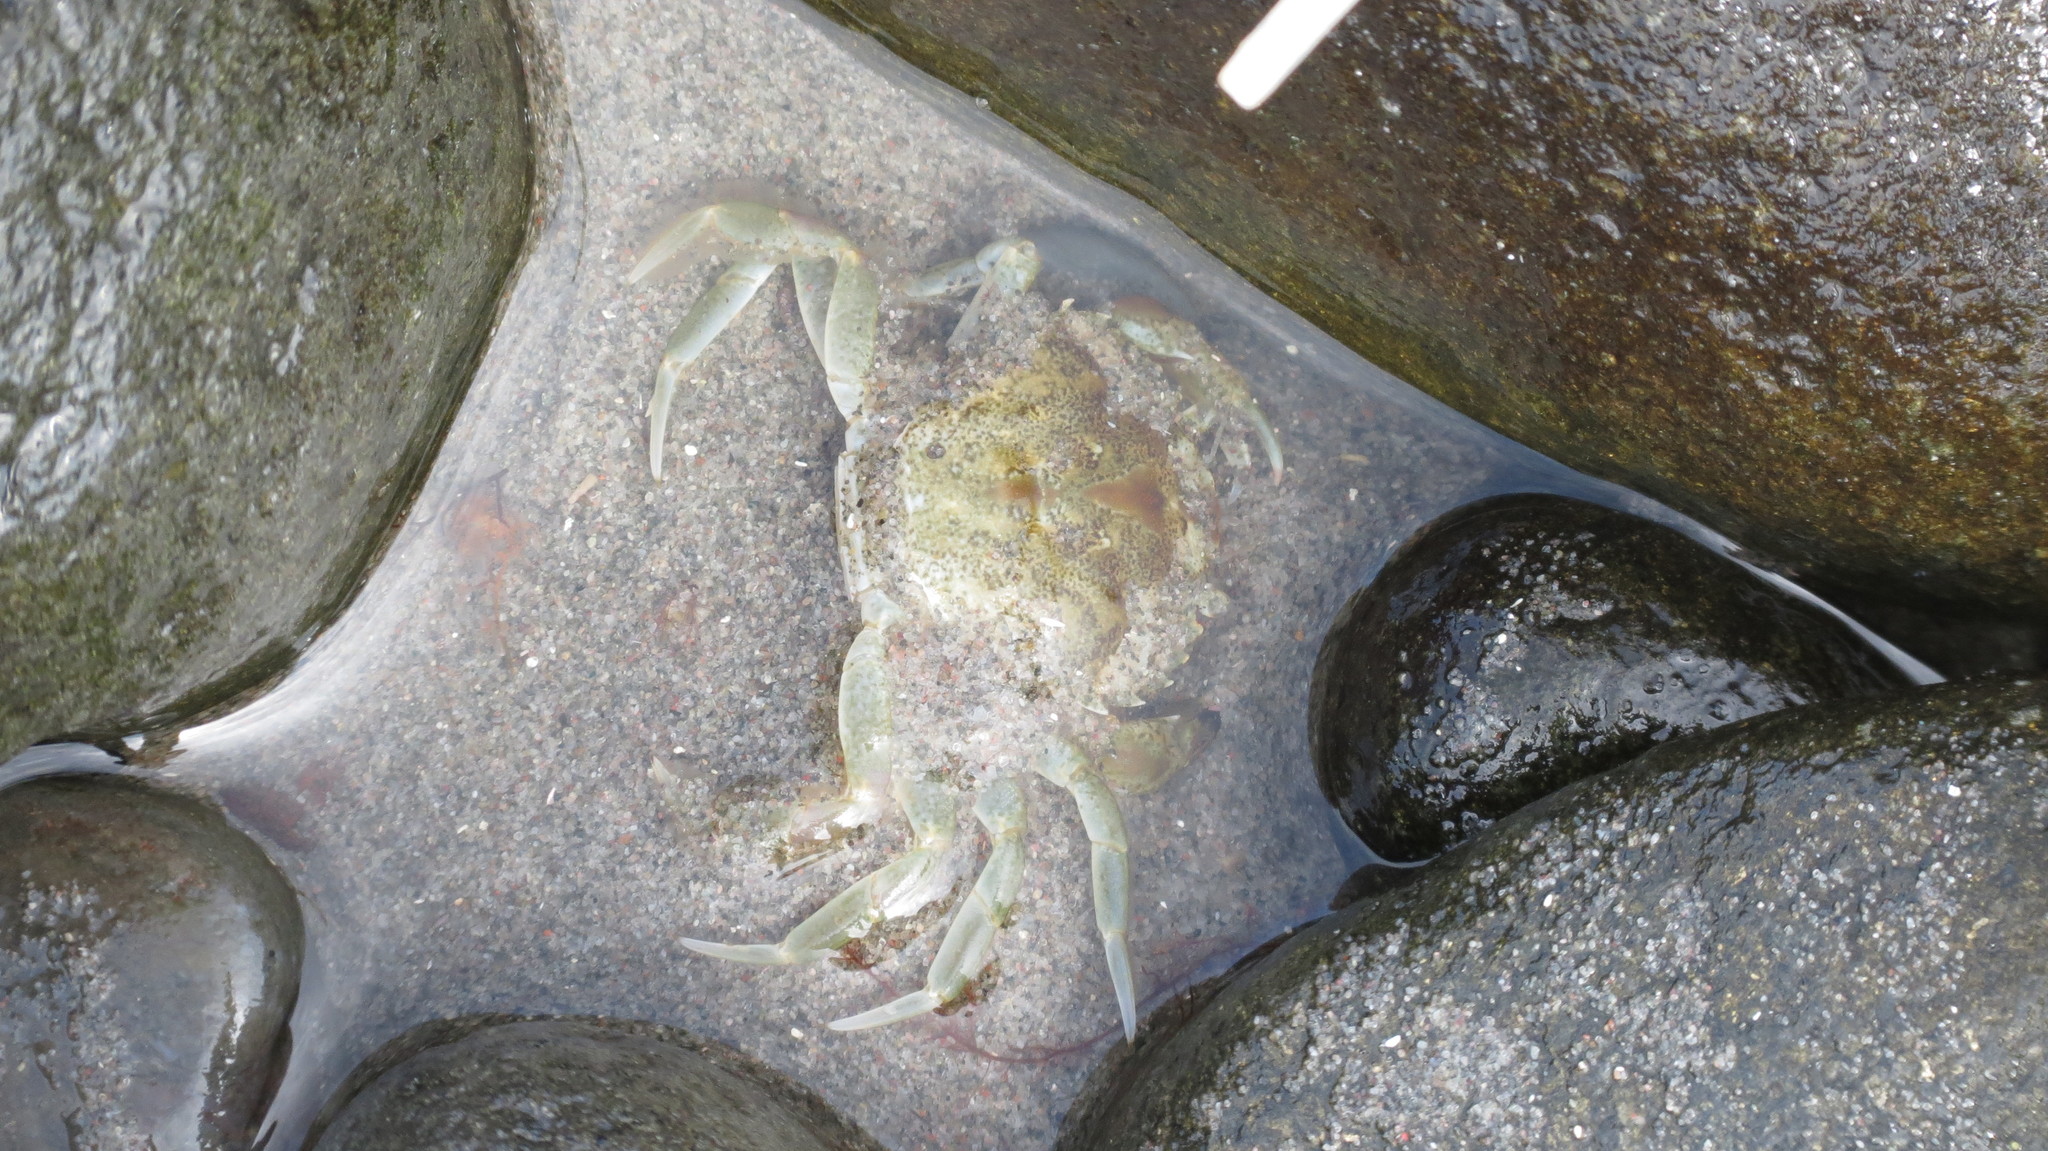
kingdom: Animalia
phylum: Arthropoda
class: Malacostraca
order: Decapoda
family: Carcinidae
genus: Carcinus
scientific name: Carcinus maenas
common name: European green crab
